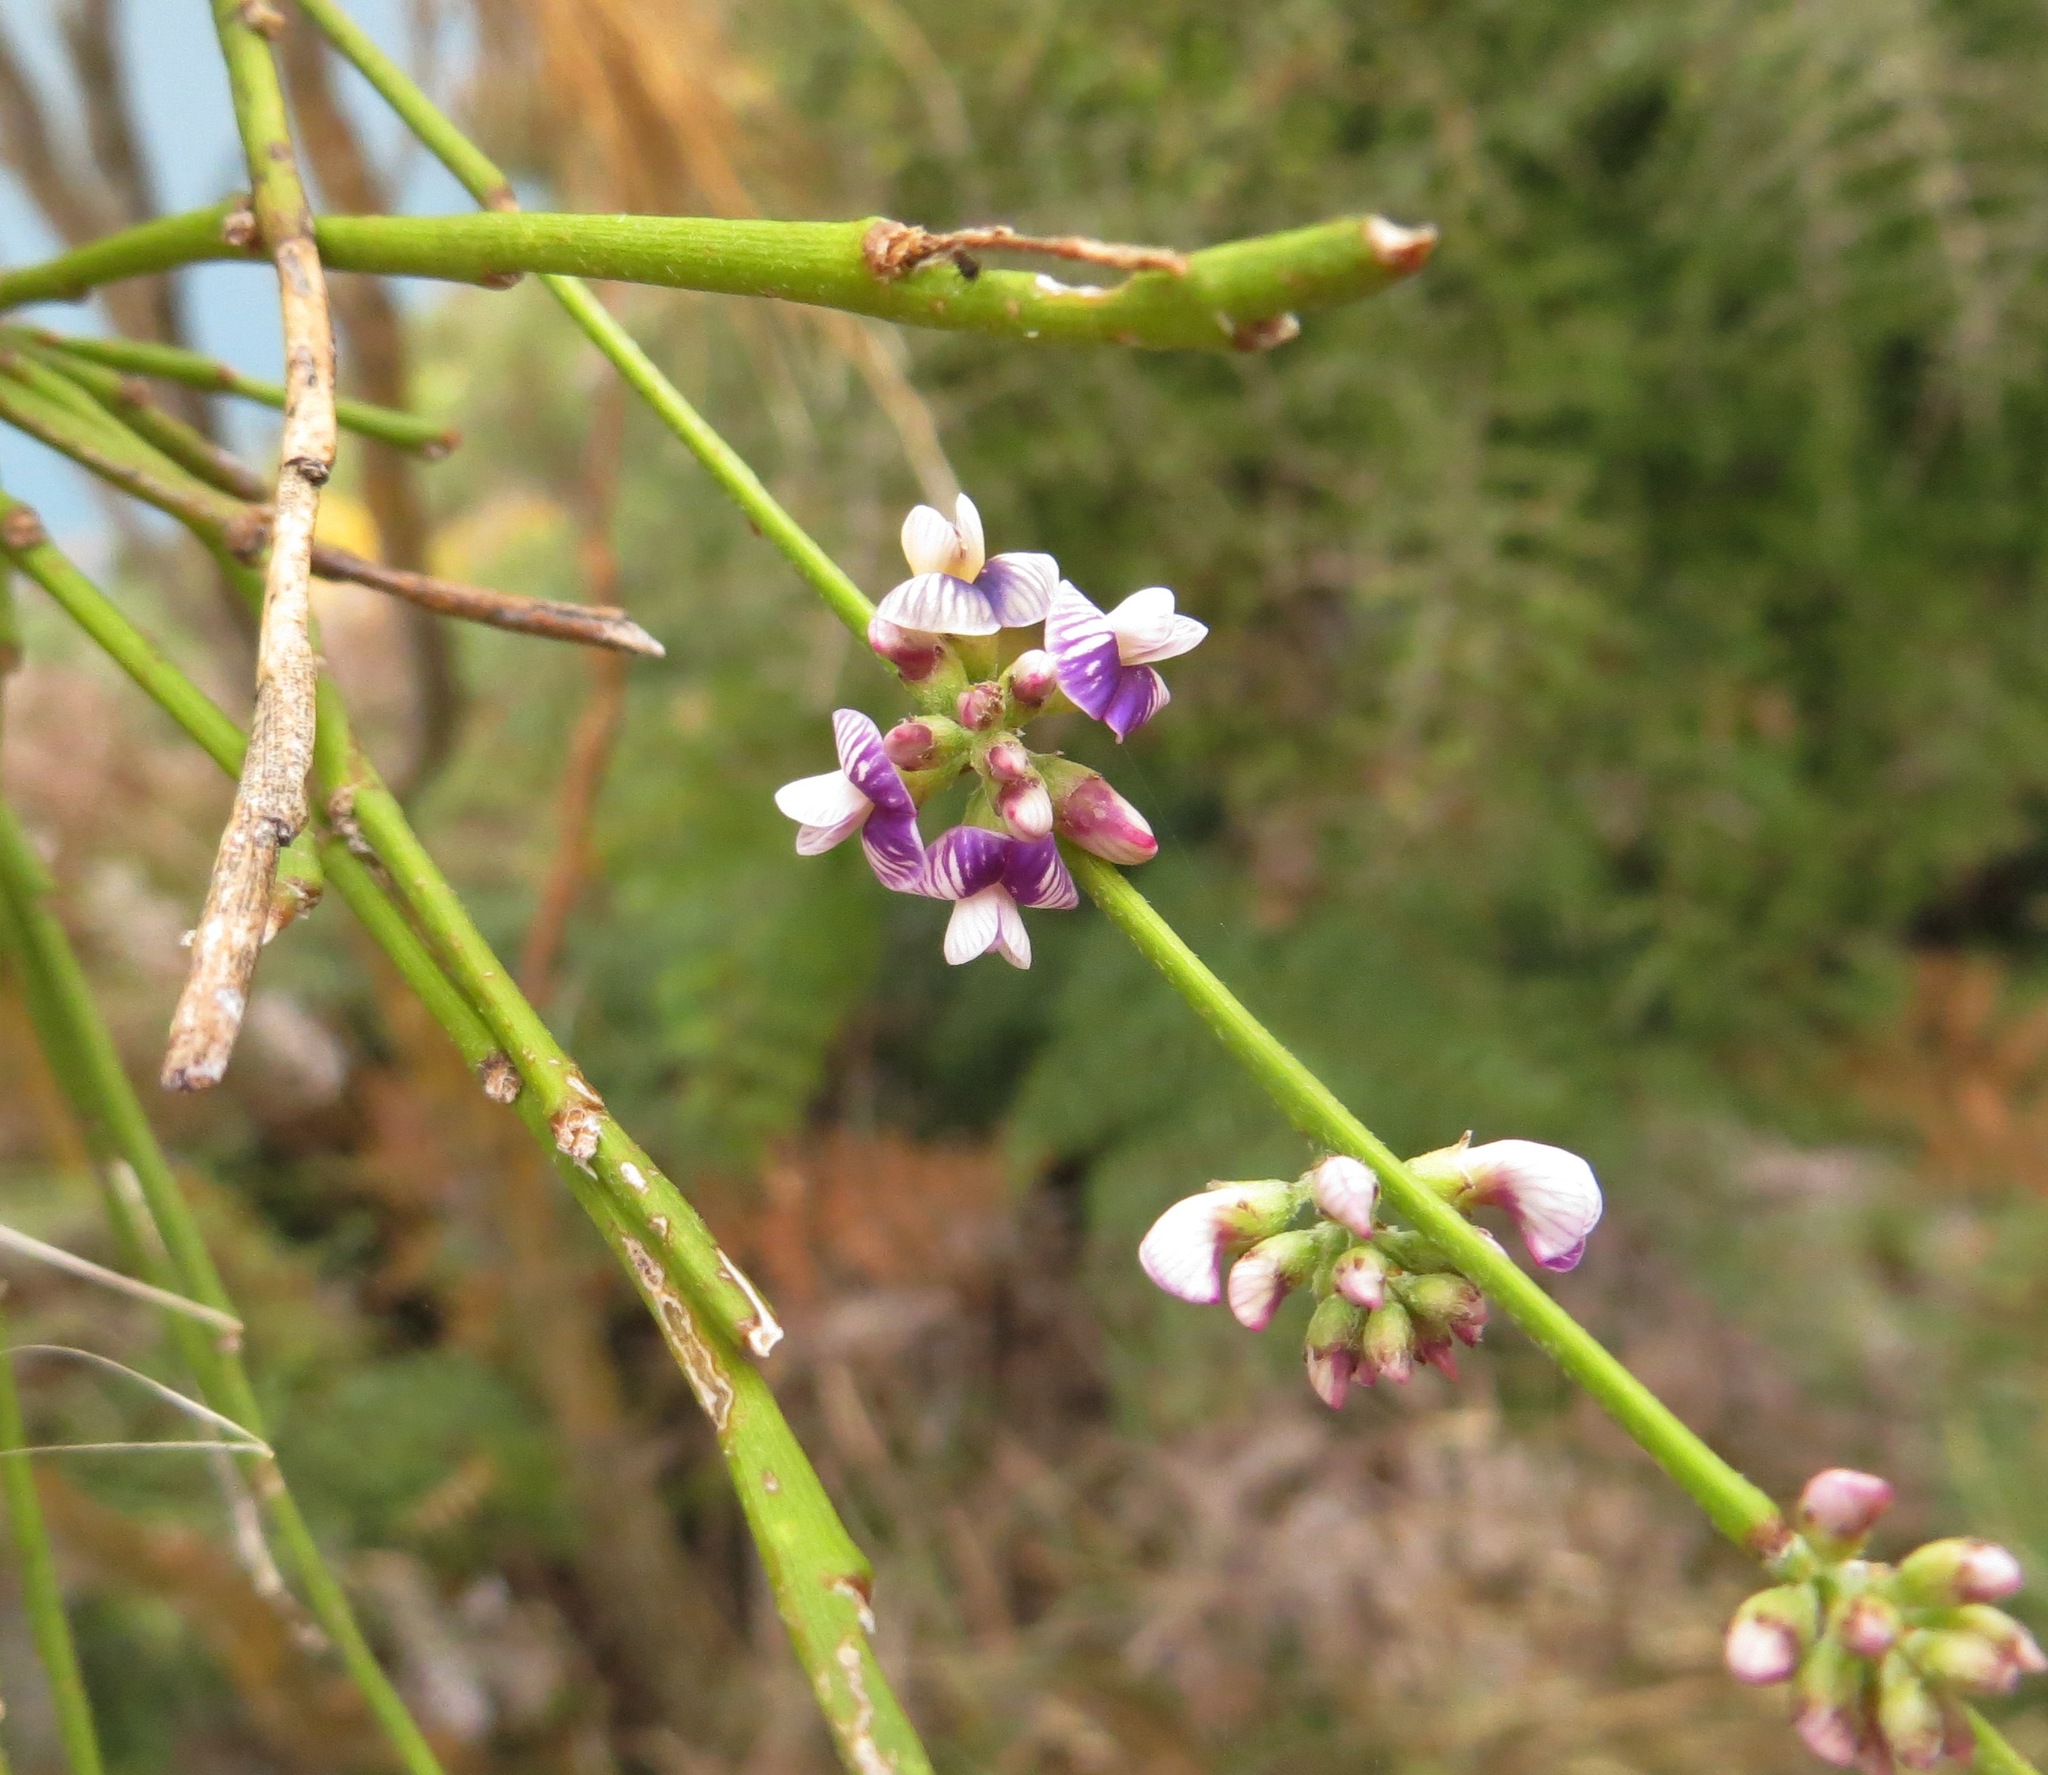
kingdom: Plantae
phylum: Tracheophyta
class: Magnoliopsida
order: Fabales
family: Fabaceae
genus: Carmichaelia
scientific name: Carmichaelia australis
